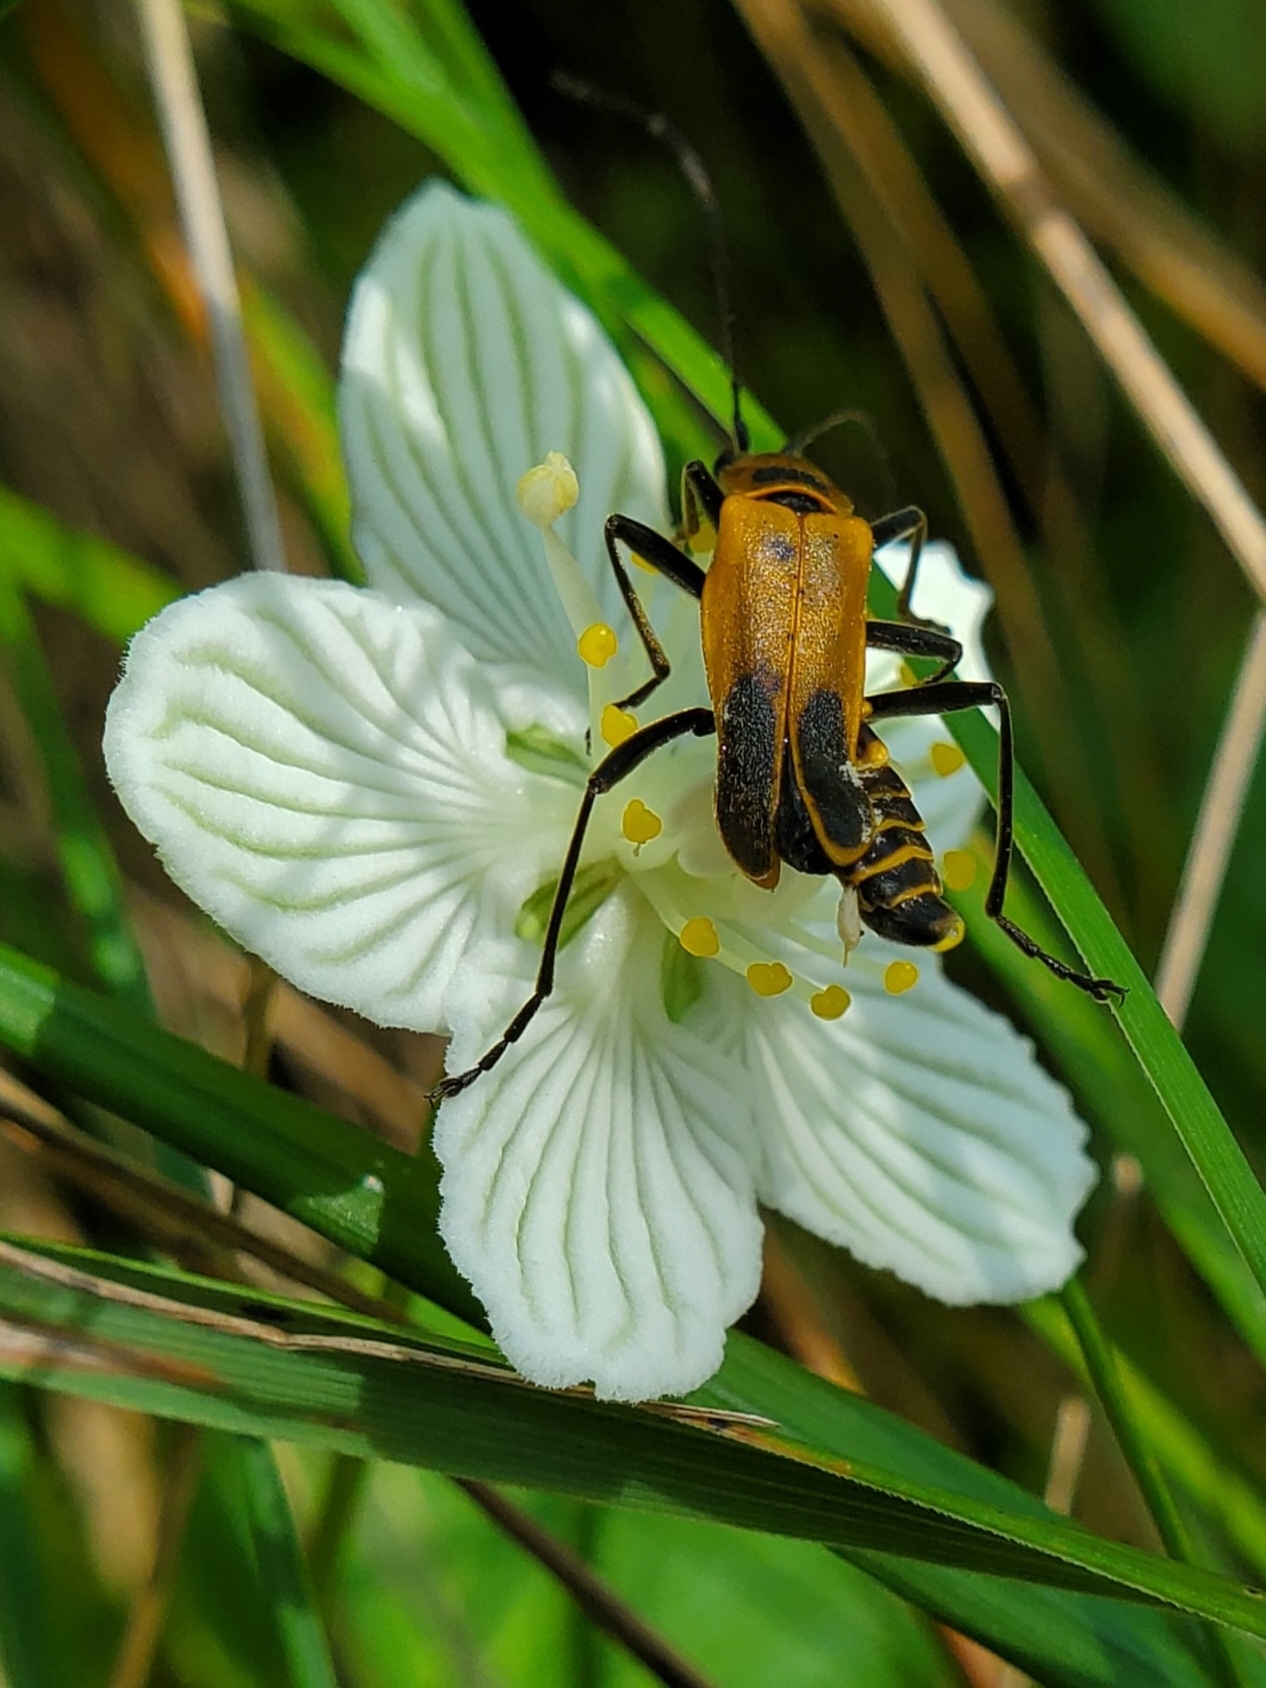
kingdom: Animalia
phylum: Arthropoda
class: Insecta
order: Coleoptera
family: Cantharidae
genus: Chauliognathus
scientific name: Chauliognathus pensylvanicus
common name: Goldenrod soldier beetle
